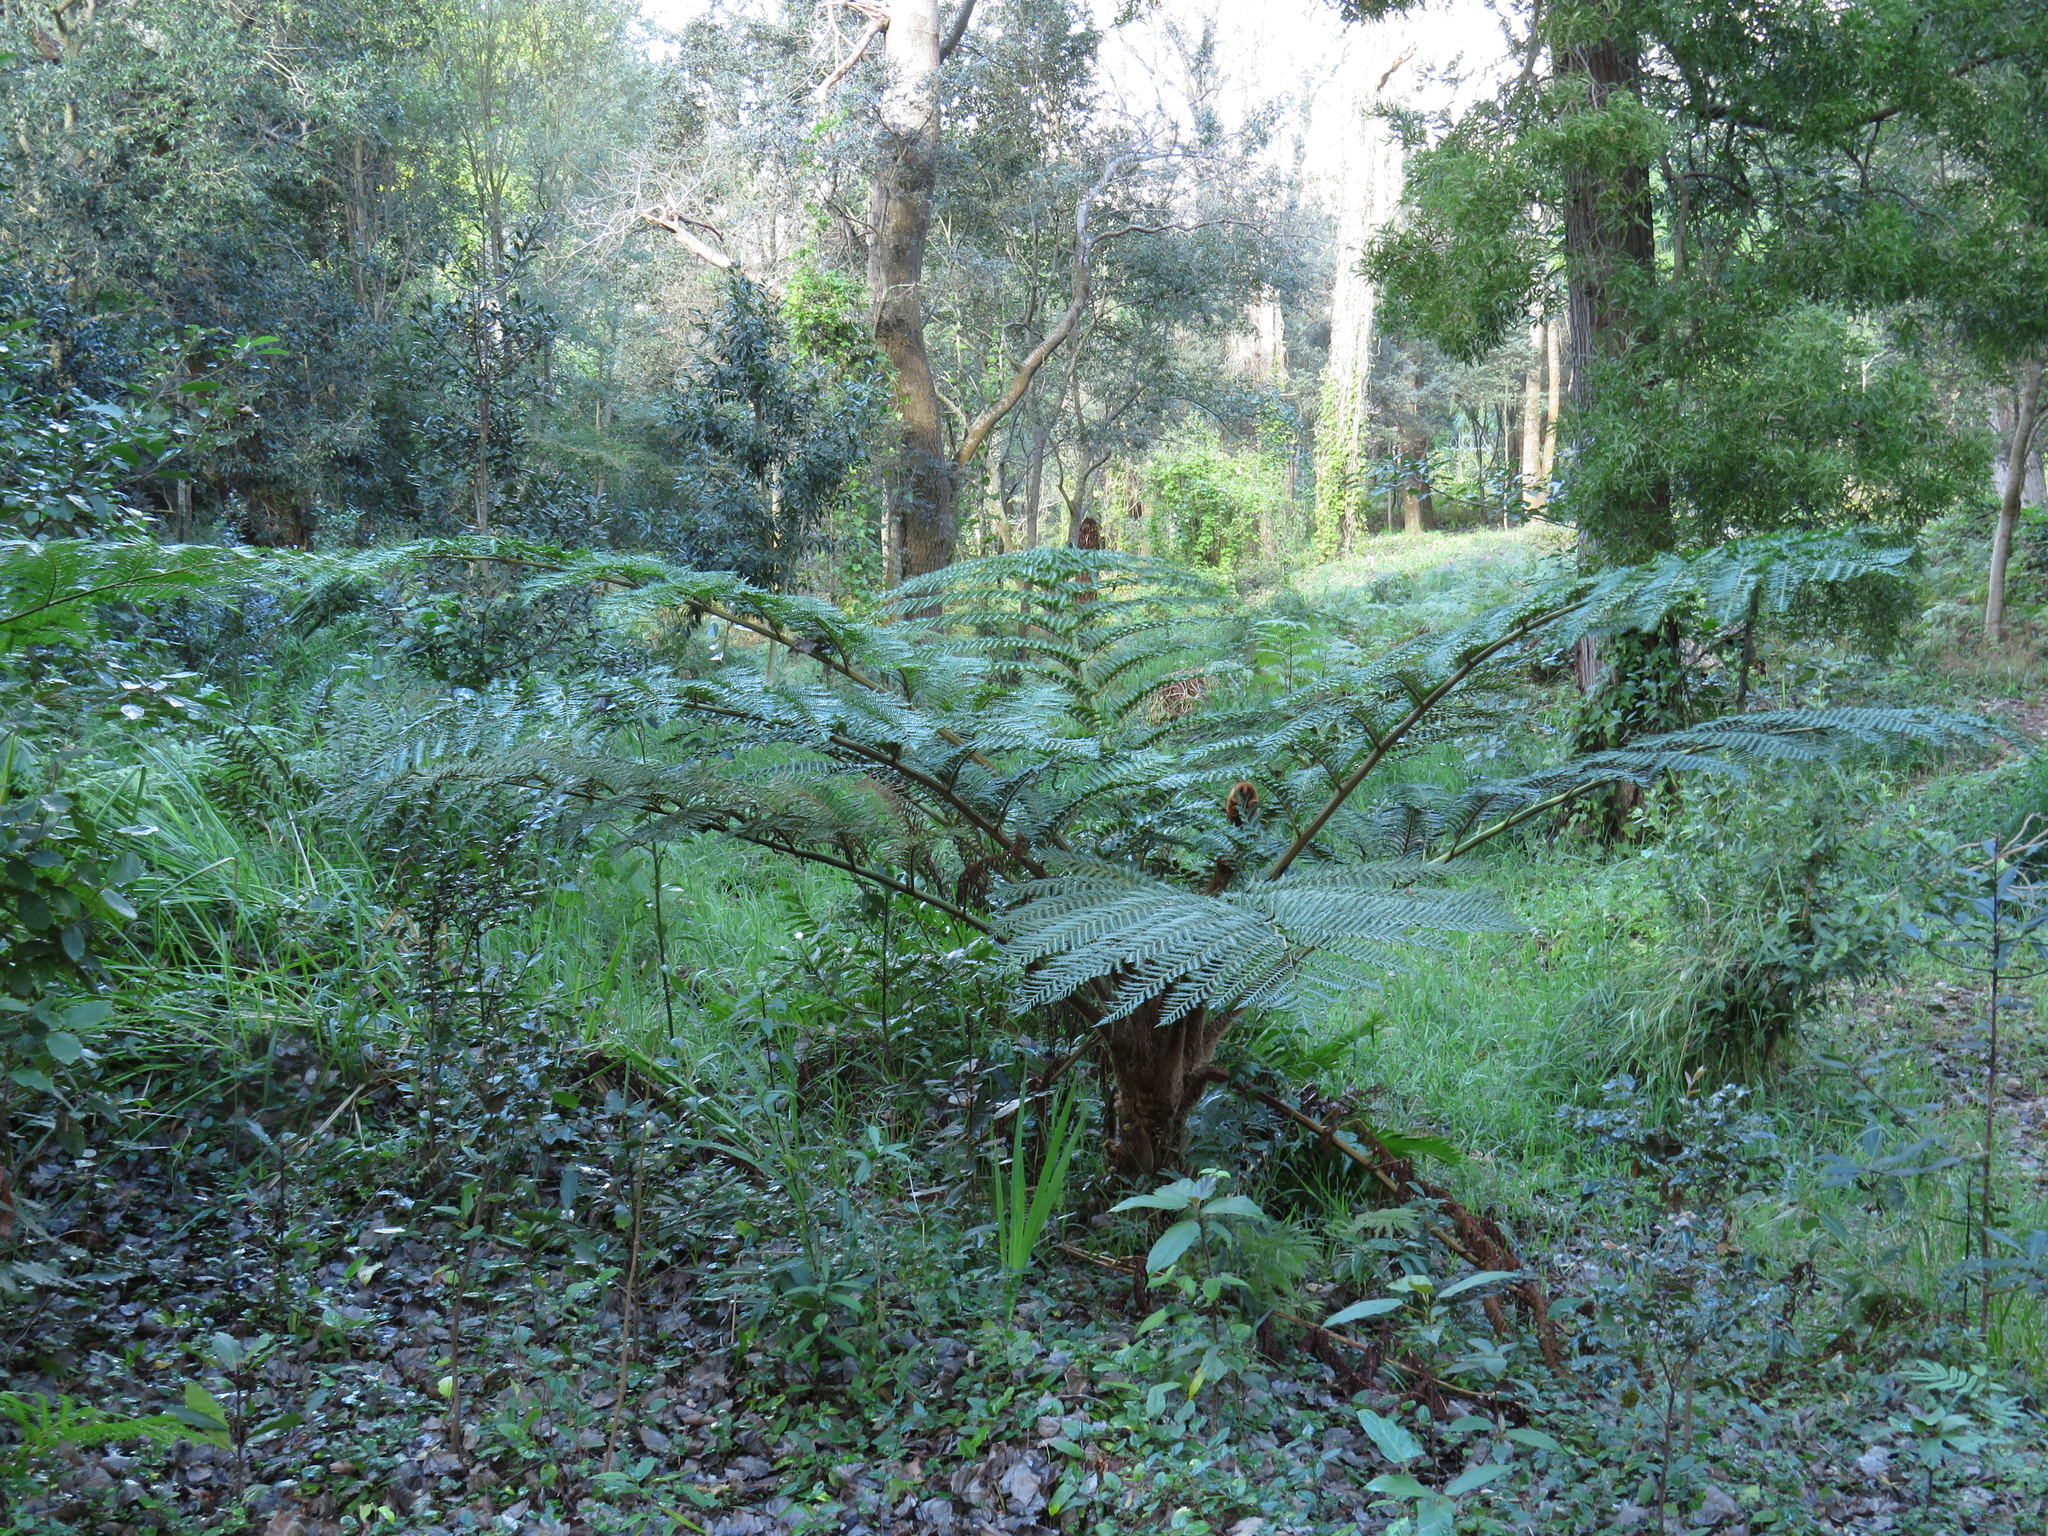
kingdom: Plantae
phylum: Tracheophyta
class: Polypodiopsida
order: Cyatheales
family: Cyatheaceae
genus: Sphaeropteris
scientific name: Sphaeropteris cooperi
